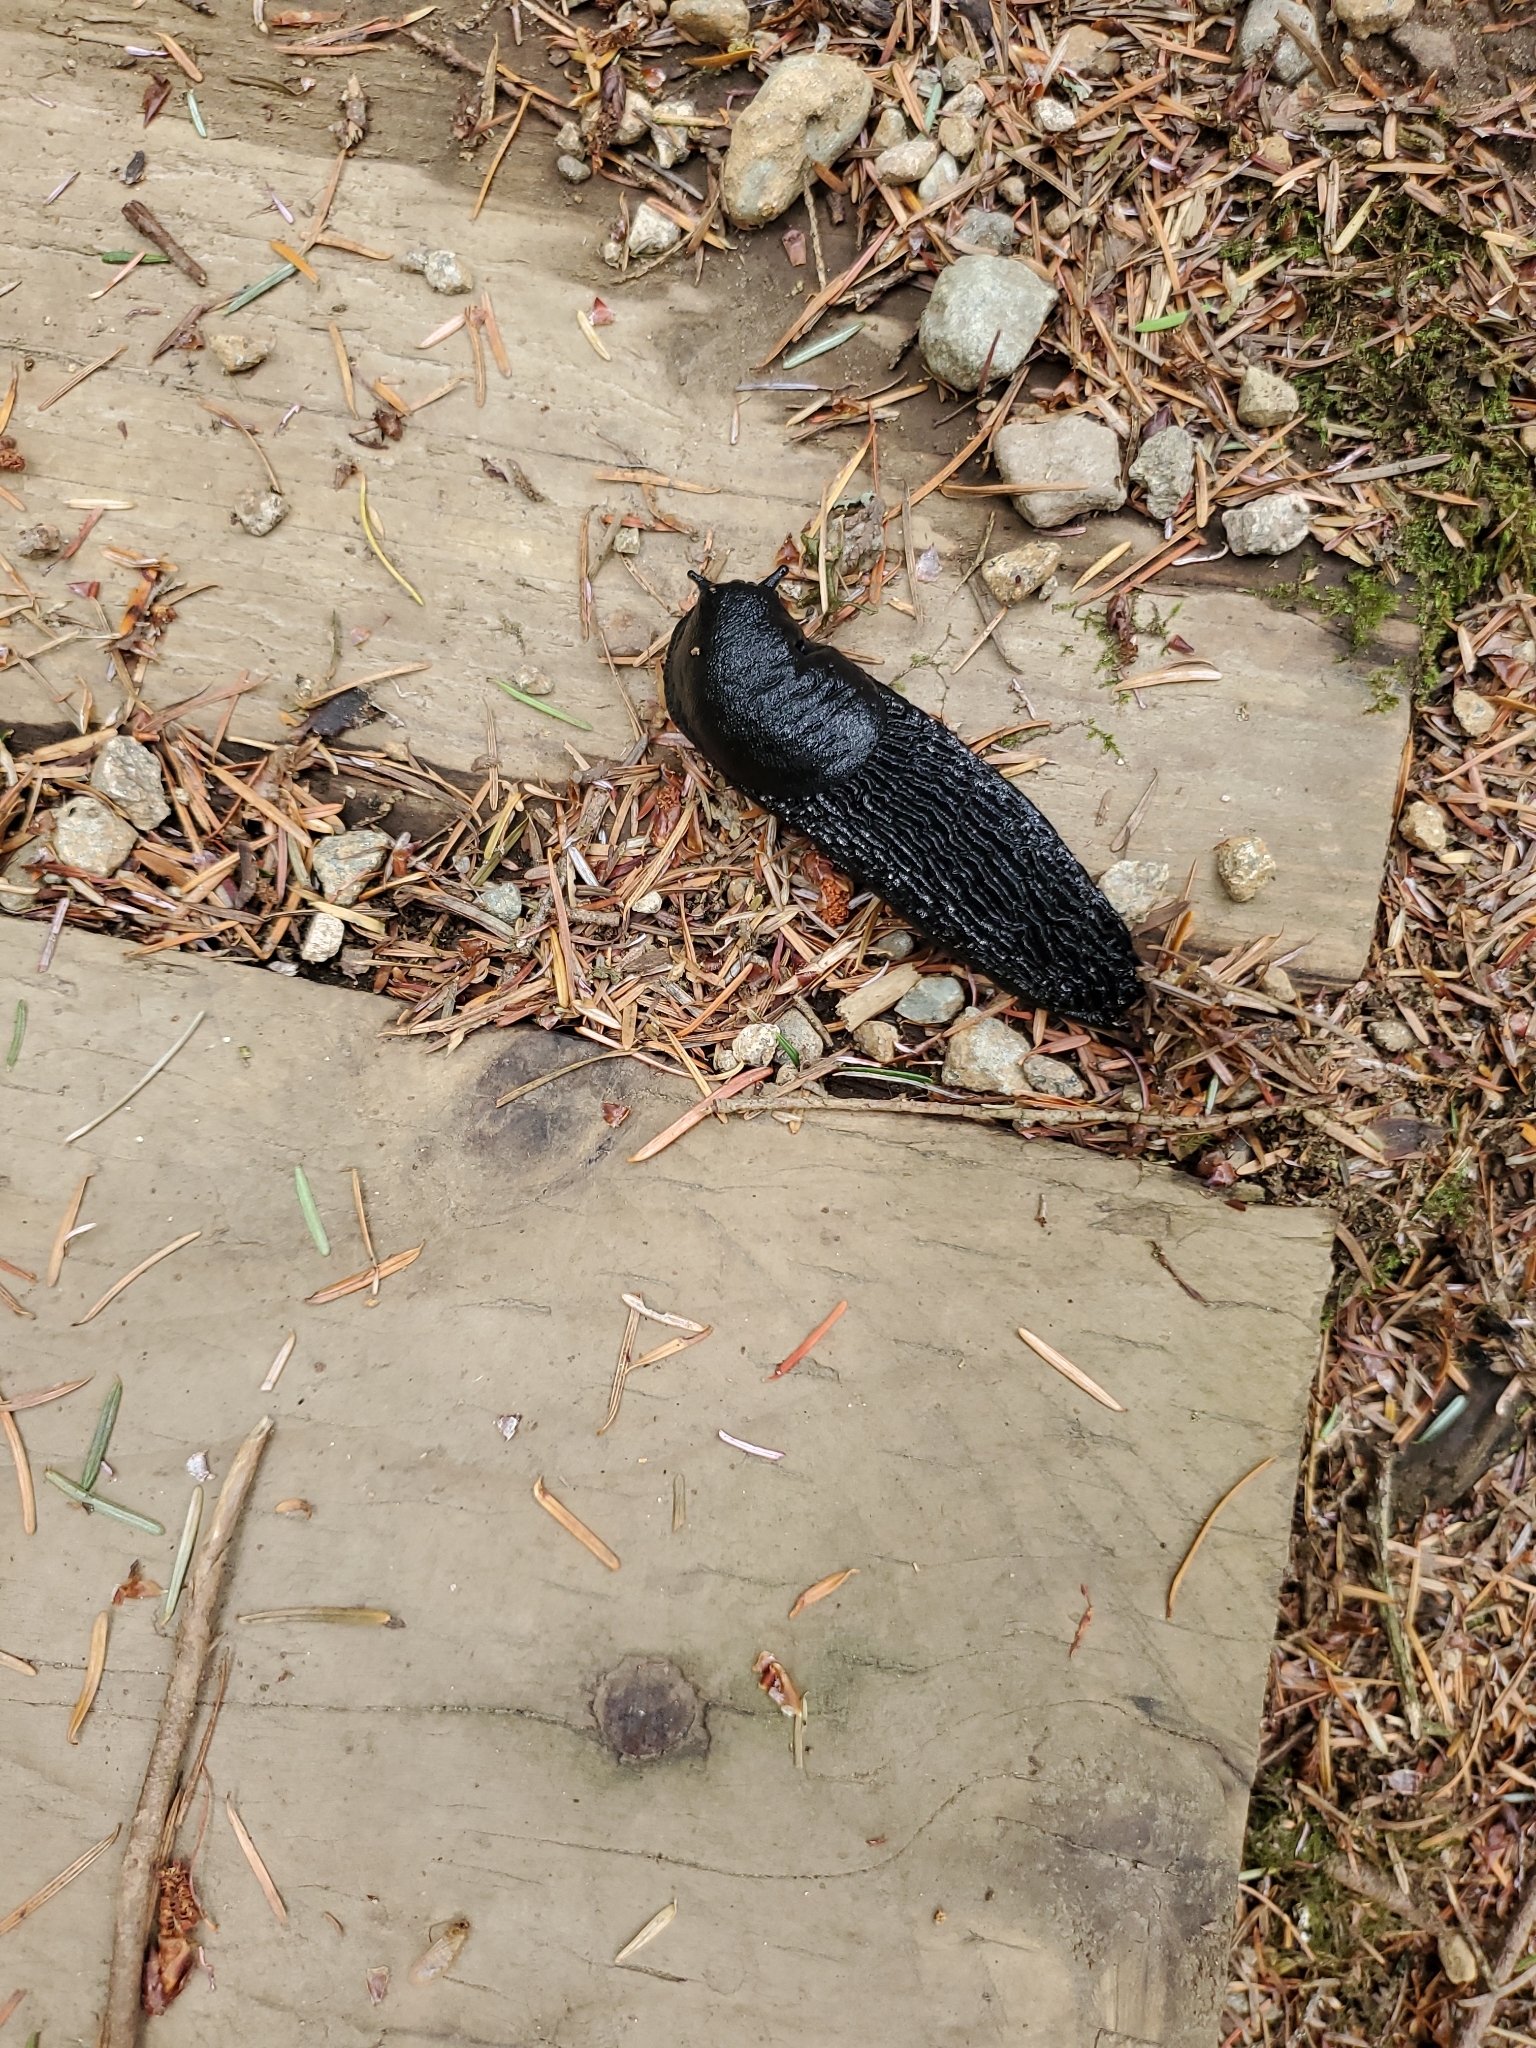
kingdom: Animalia
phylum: Mollusca
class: Gastropoda
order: Stylommatophora
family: Arionidae
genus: Arion
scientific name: Arion
